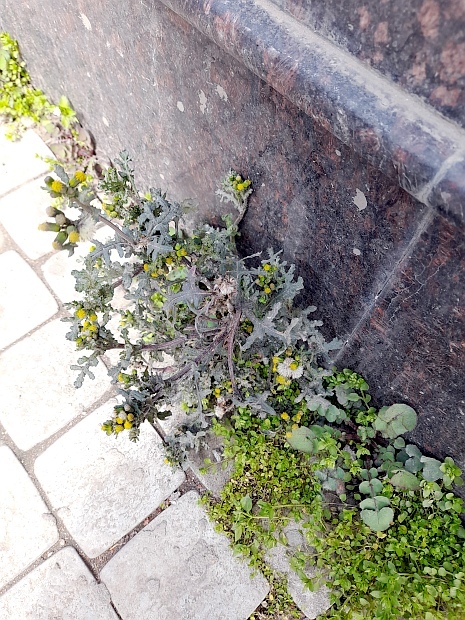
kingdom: Plantae
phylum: Tracheophyta
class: Magnoliopsida
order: Asterales
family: Asteraceae
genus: Senecio
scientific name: Senecio vulgaris
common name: Old-man-in-the-spring
